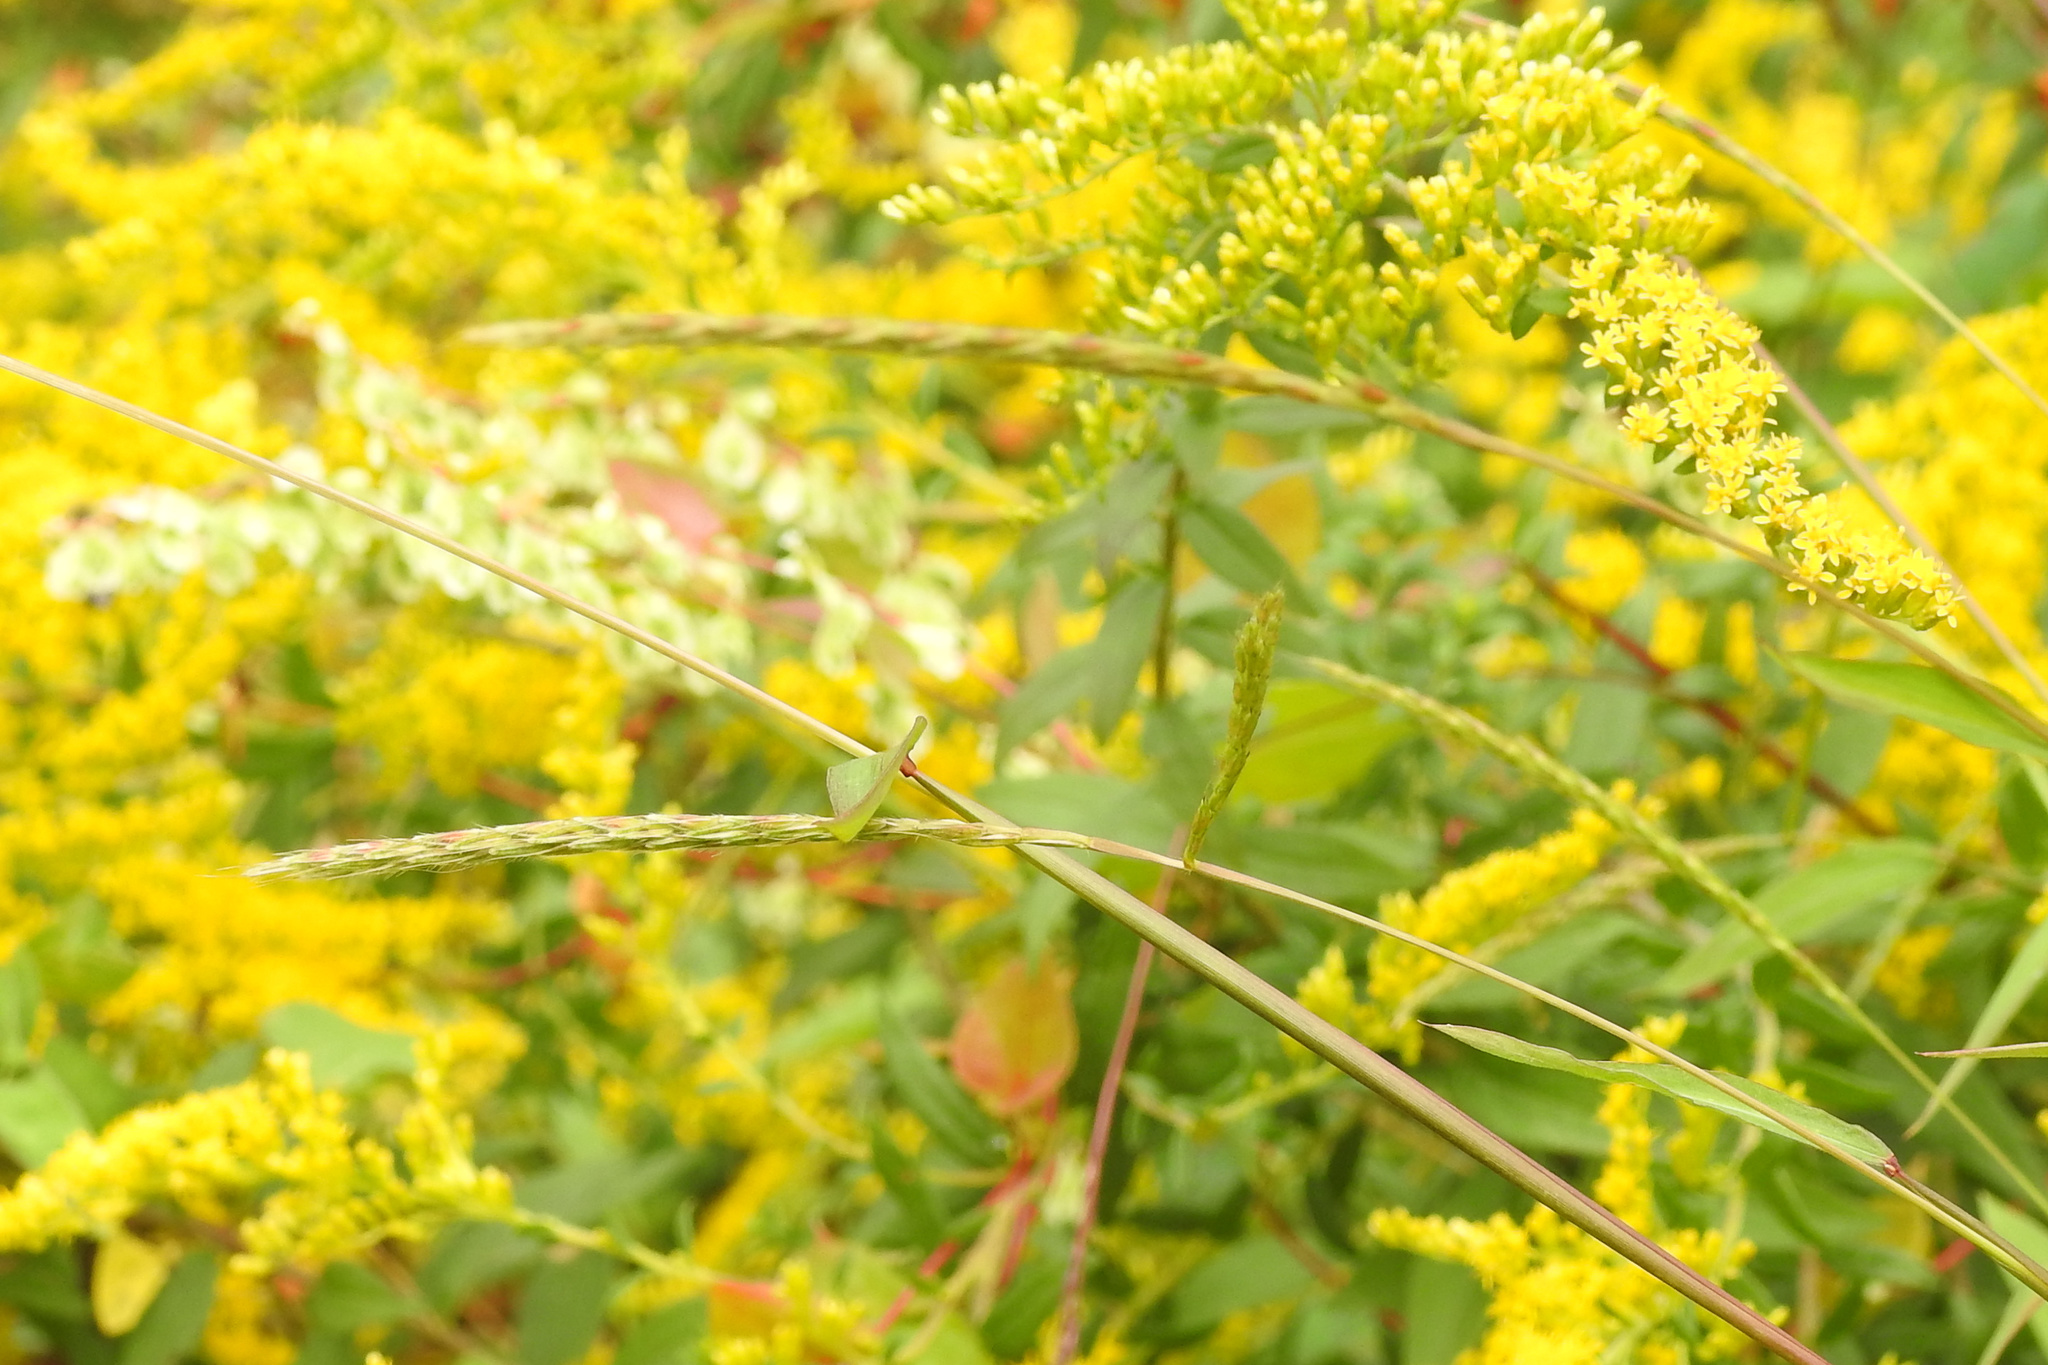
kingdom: Plantae
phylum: Tracheophyta
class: Liliopsida
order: Poales
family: Poaceae
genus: Microstegium
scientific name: Microstegium vimineum
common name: Japanese stiltgrass
